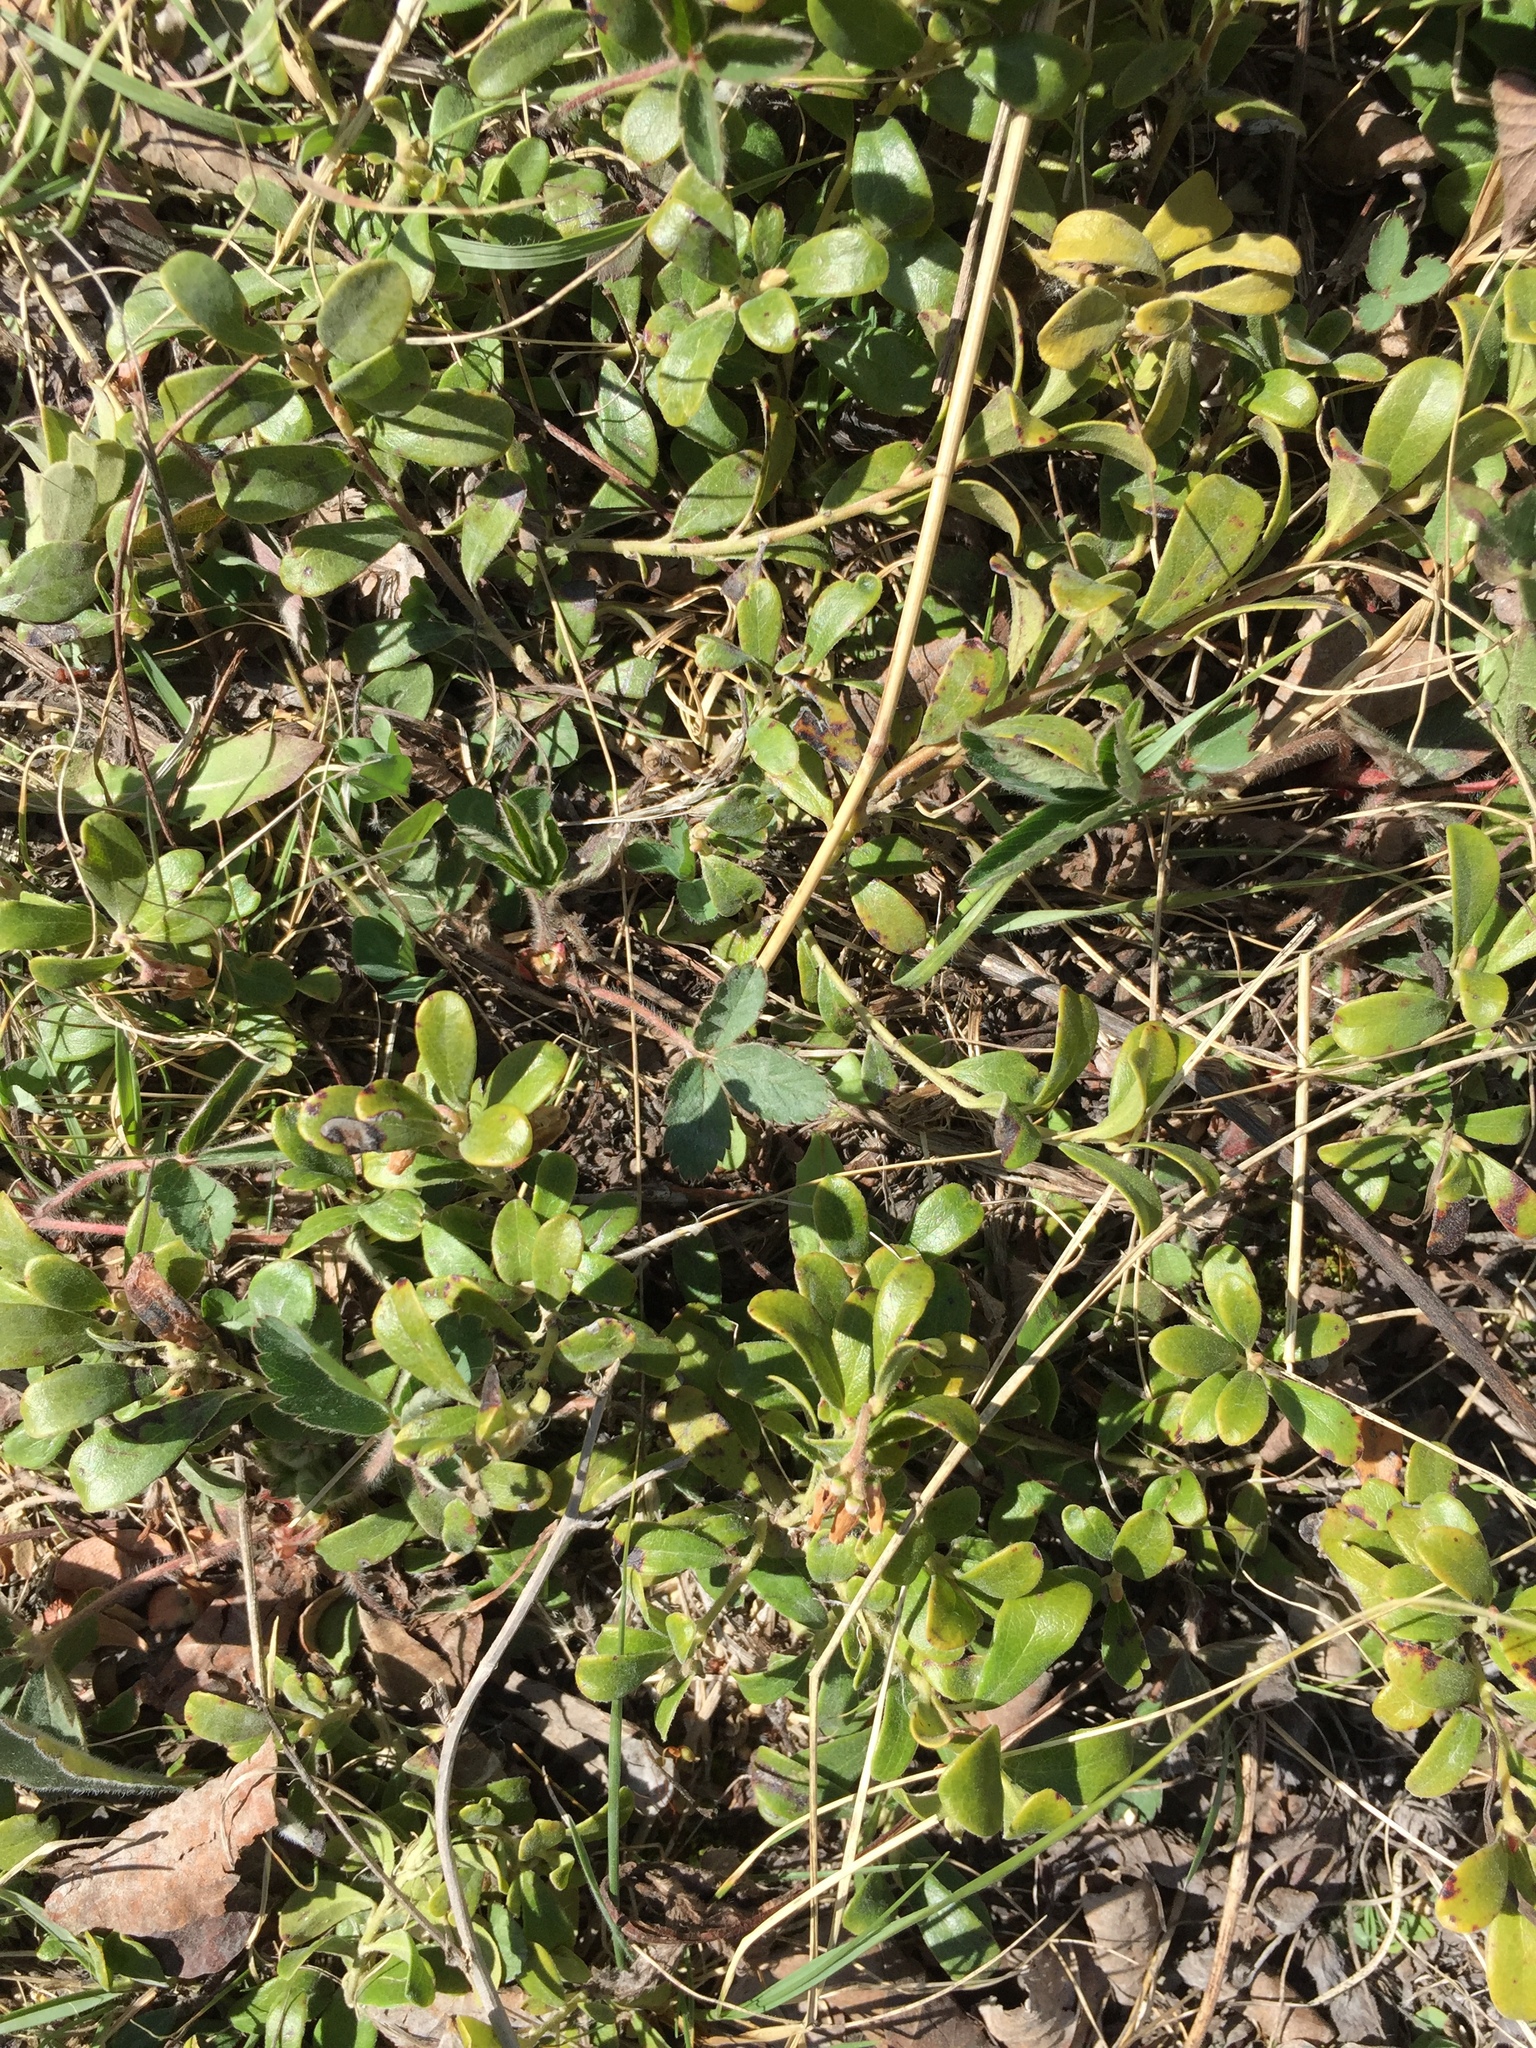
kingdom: Plantae
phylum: Tracheophyta
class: Magnoliopsida
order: Ericales
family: Ericaceae
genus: Arctostaphylos
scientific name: Arctostaphylos uva-ursi
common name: Bearberry
